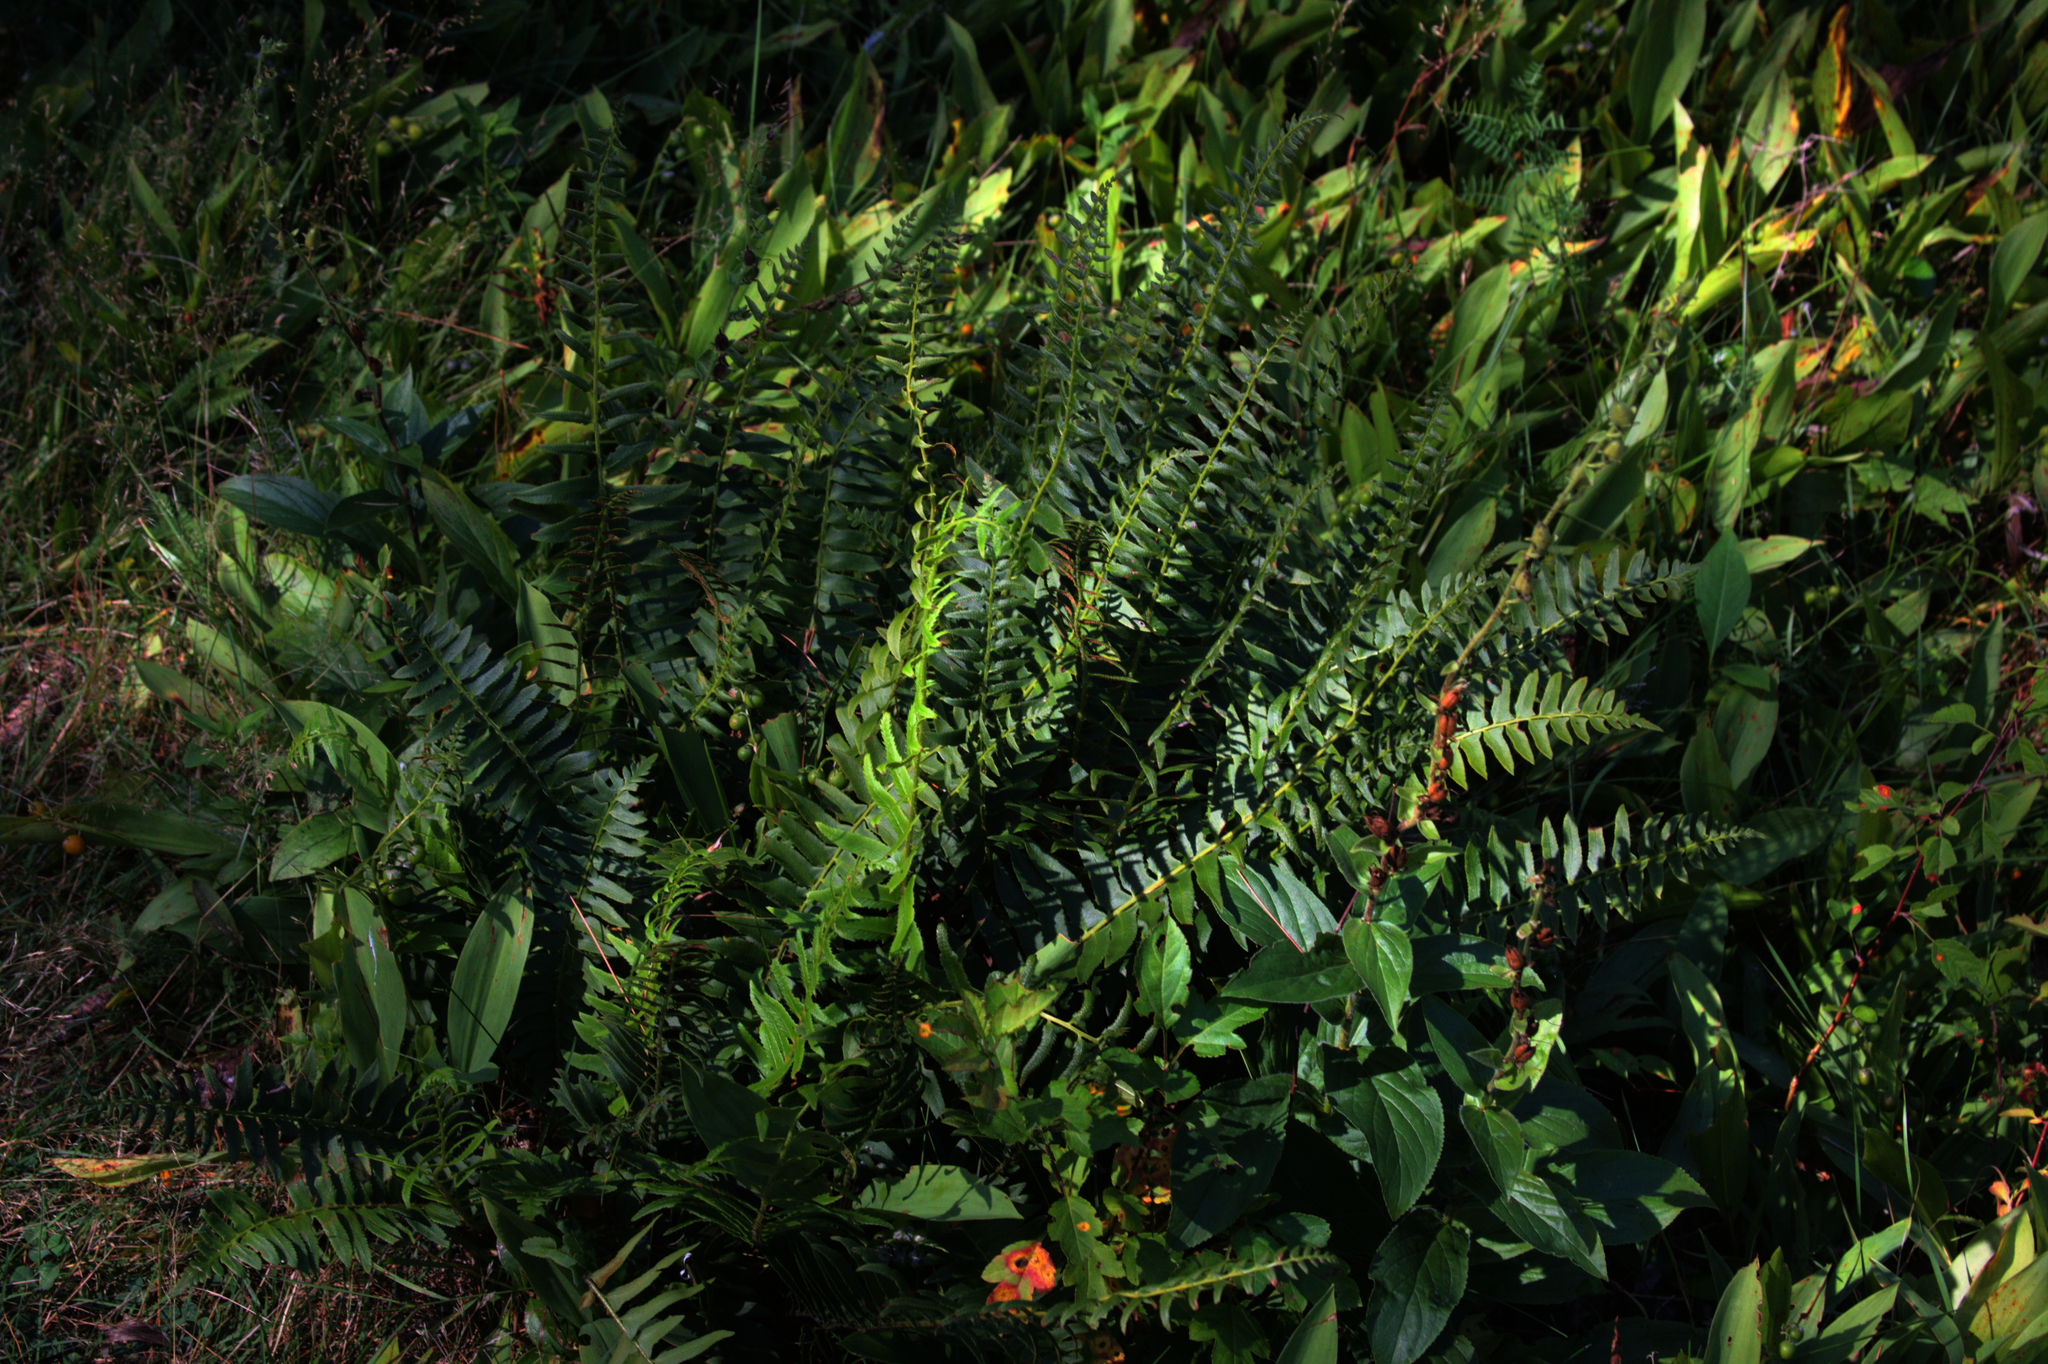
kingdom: Plantae
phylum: Tracheophyta
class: Polypodiopsida
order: Polypodiales
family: Dryopteridaceae
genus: Polystichum
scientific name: Polystichum acrostichoides
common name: Christmas fern
